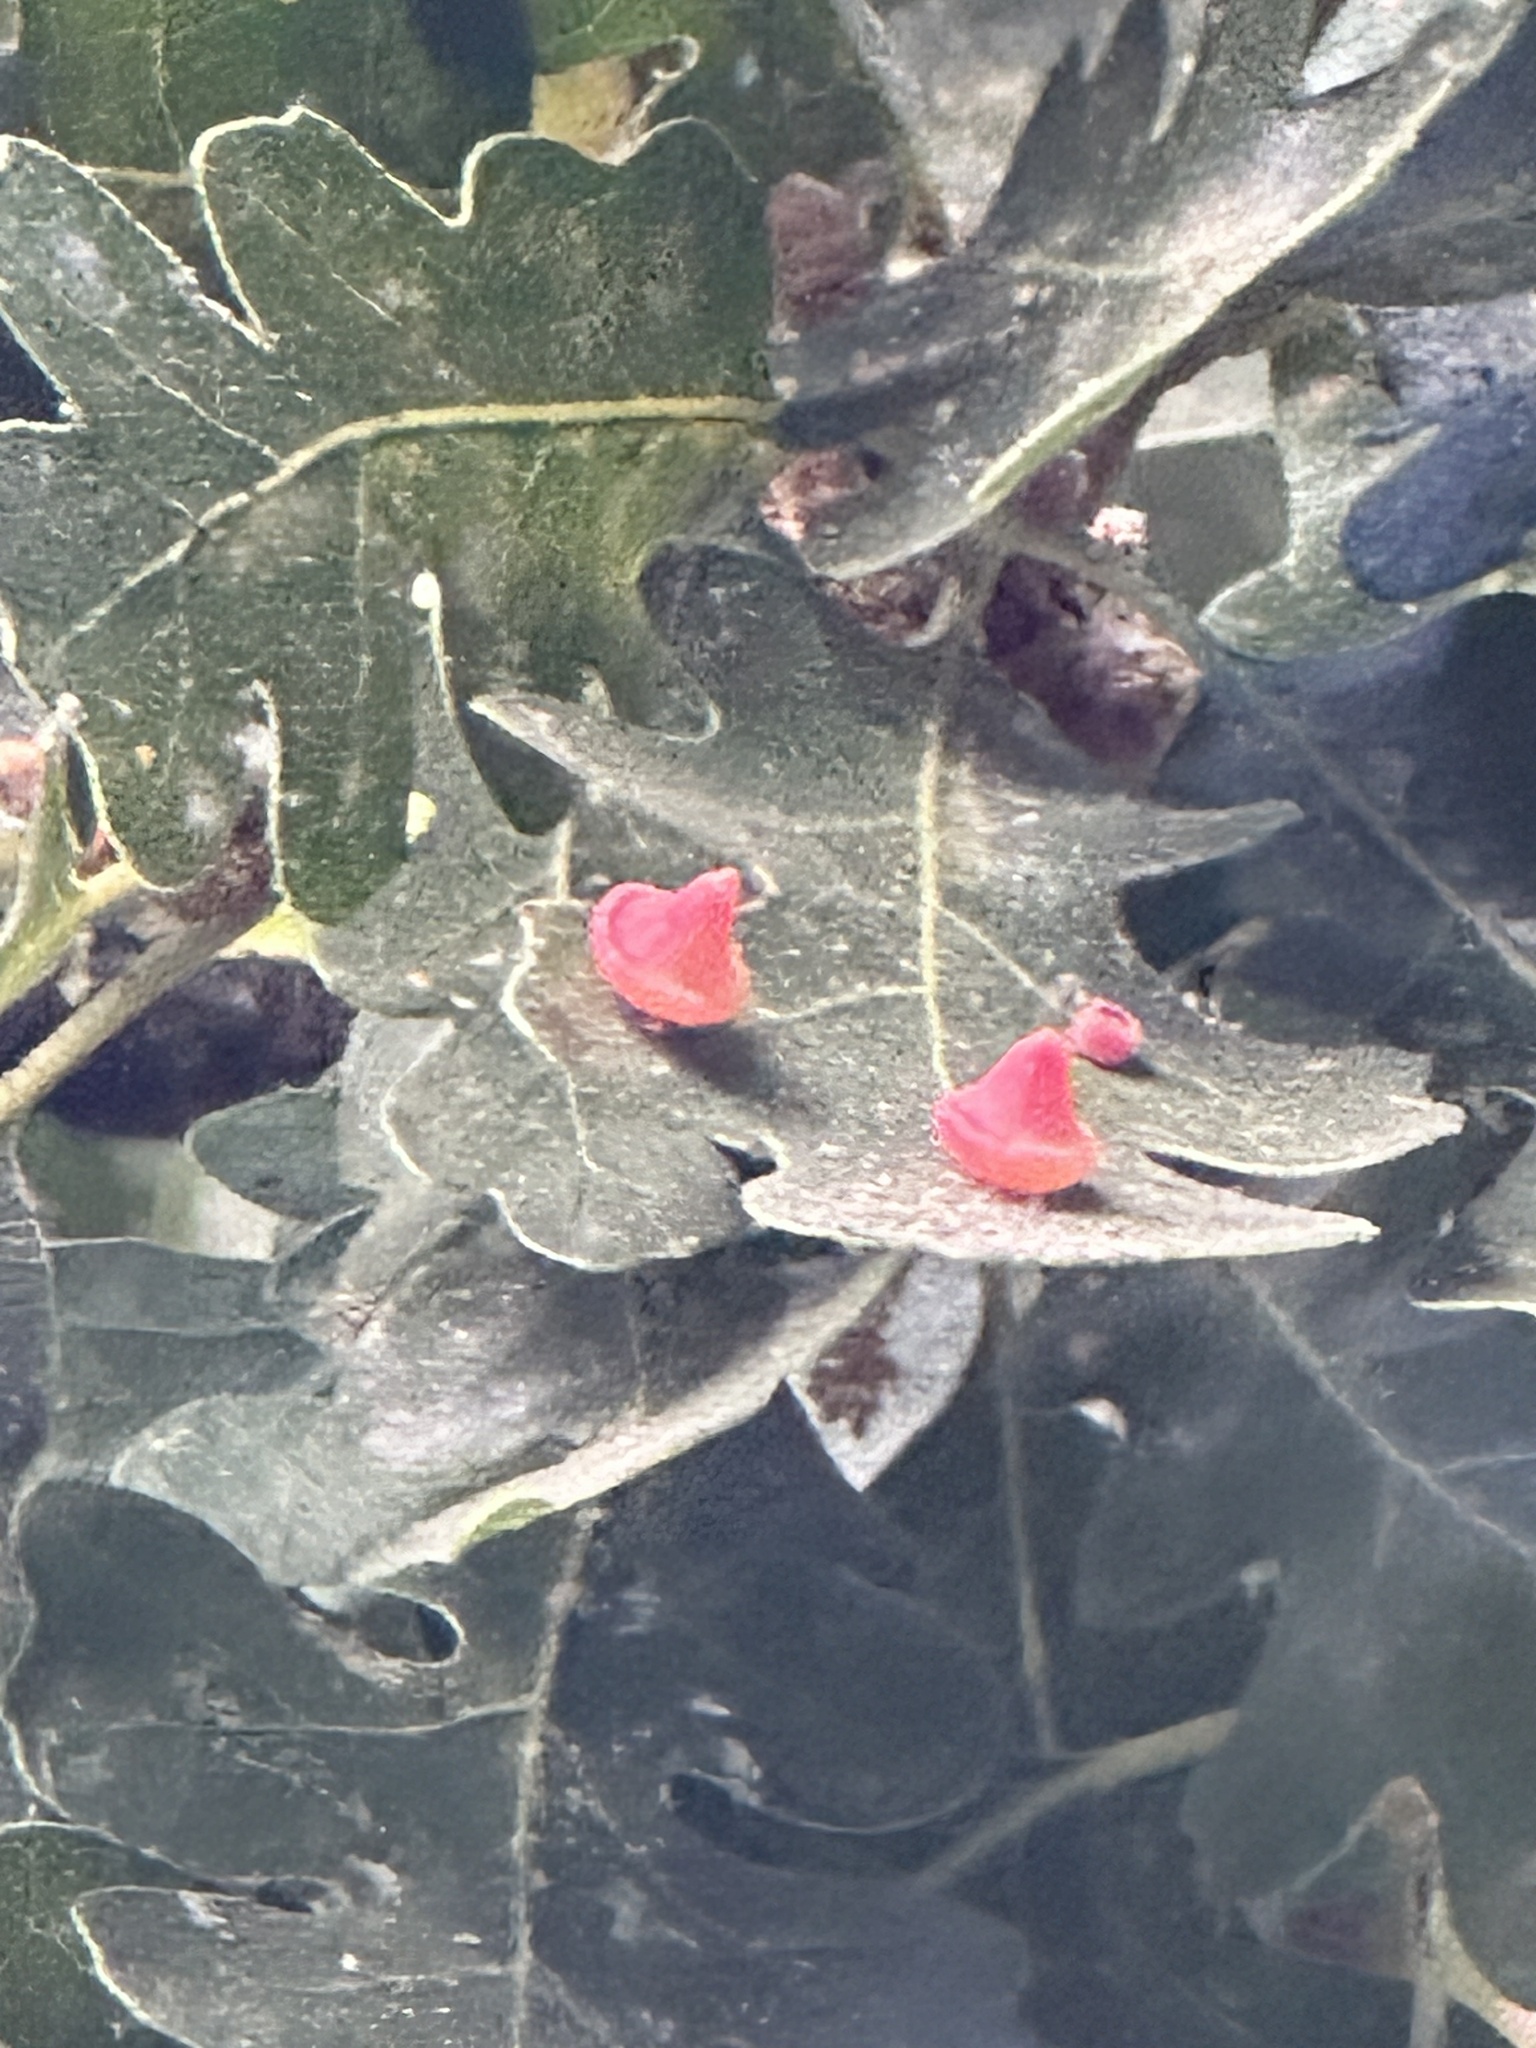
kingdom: Animalia
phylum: Arthropoda
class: Insecta
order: Hymenoptera
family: Cynipidae
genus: Andricus
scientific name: Andricus
